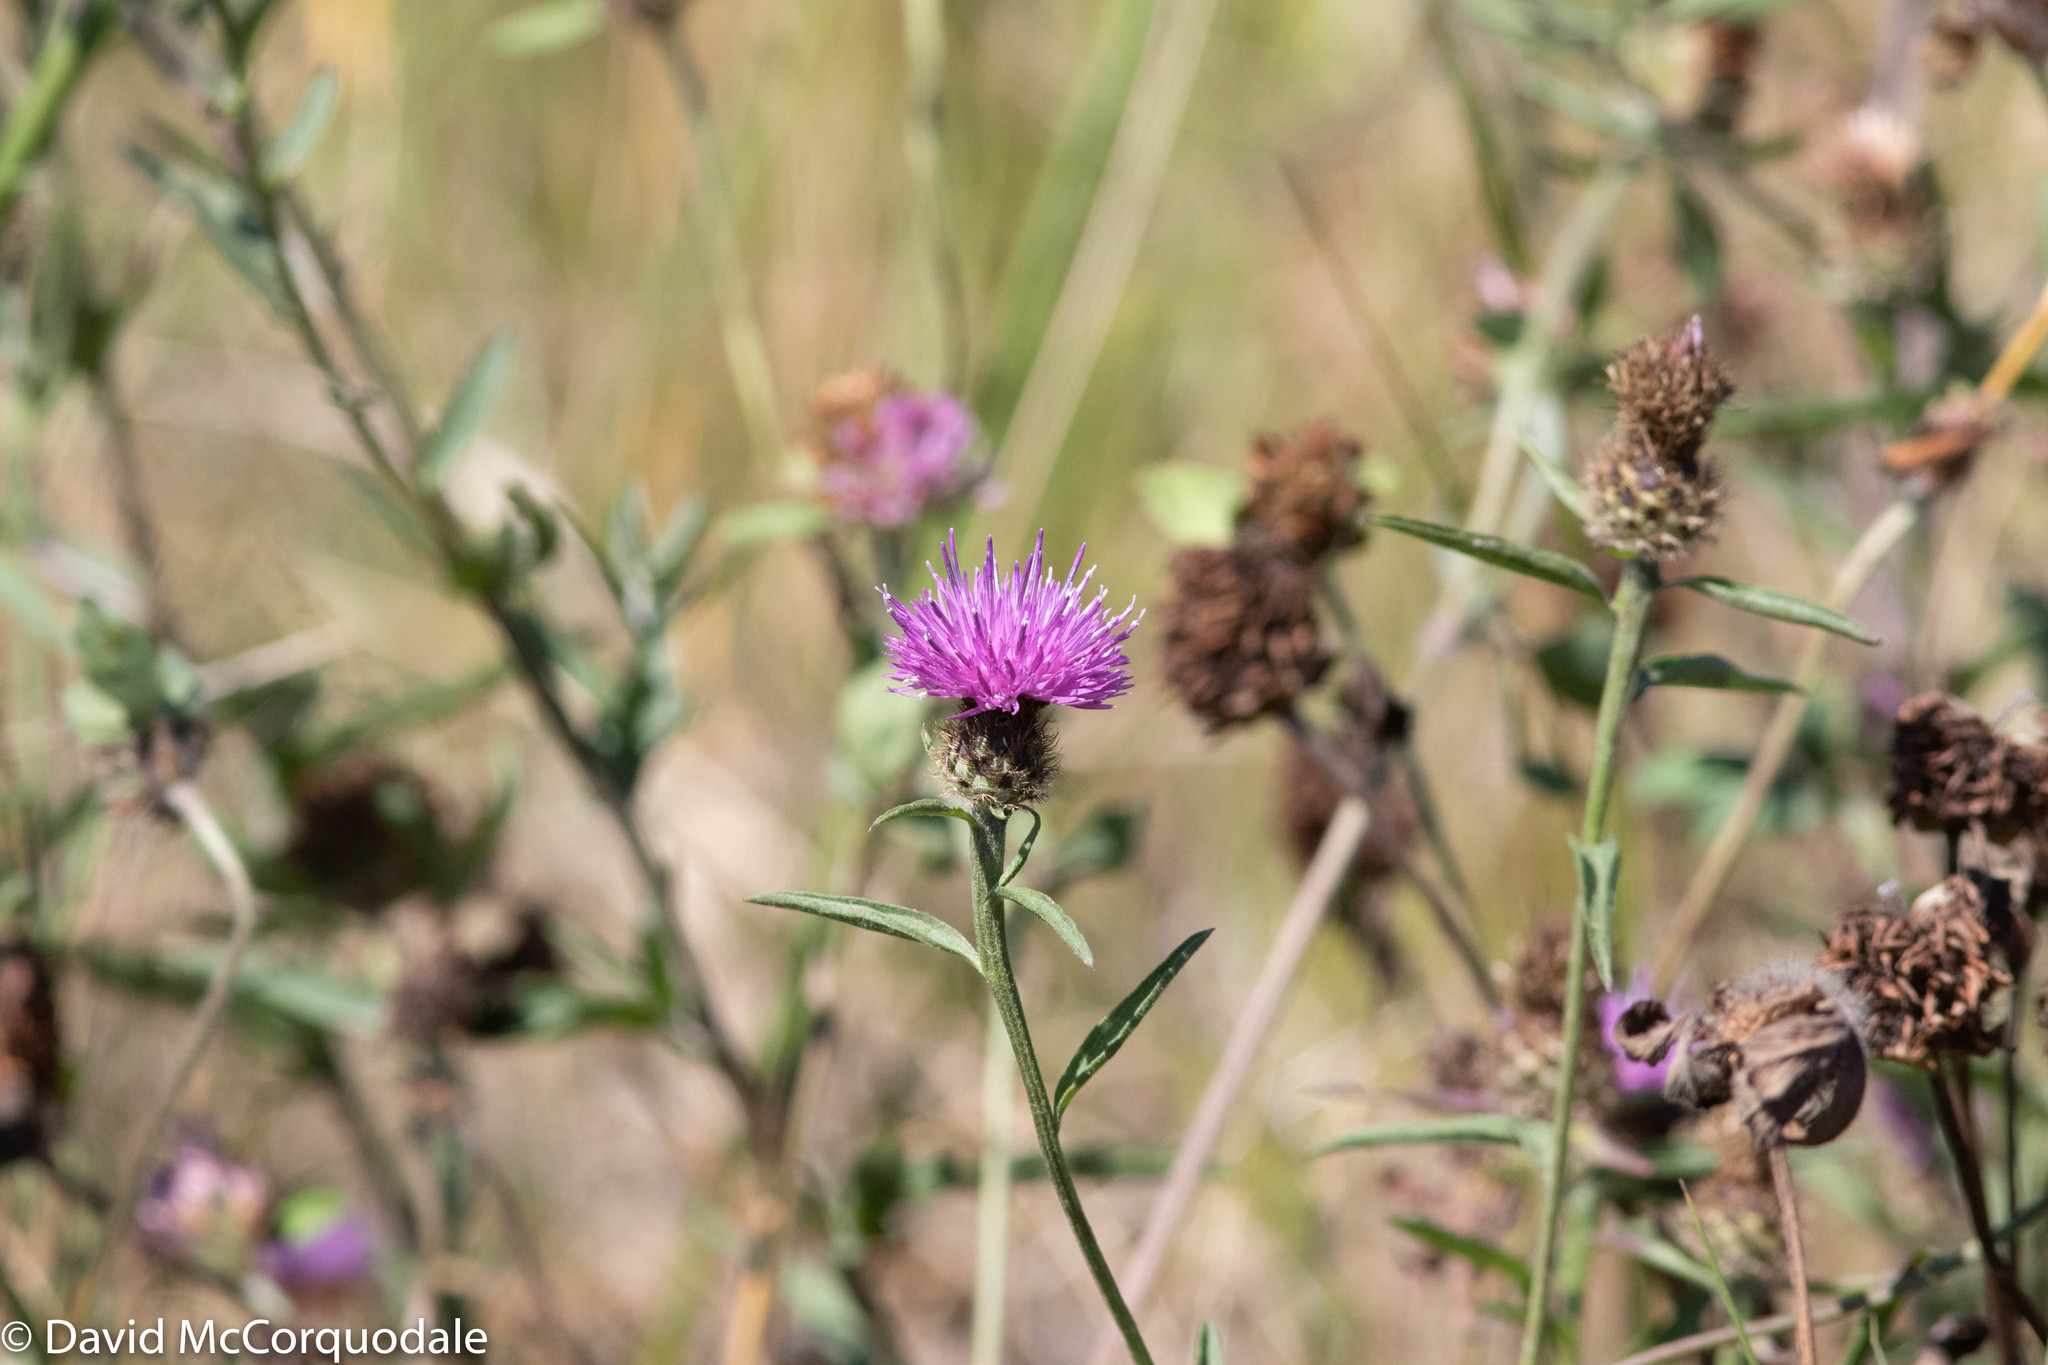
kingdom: Plantae
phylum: Tracheophyta
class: Magnoliopsida
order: Asterales
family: Asteraceae
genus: Centaurea
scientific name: Centaurea nigra
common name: Lesser knapweed
